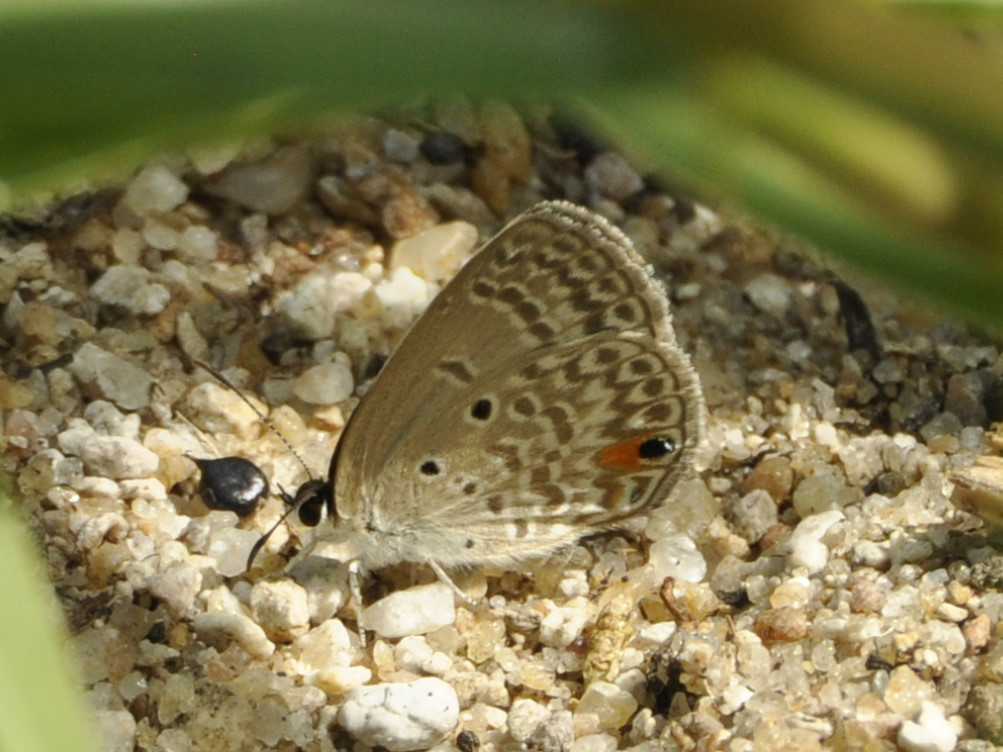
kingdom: Animalia
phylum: Arthropoda
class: Insecta
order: Lepidoptera
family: Lycaenidae
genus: Euchrysops
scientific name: Euchrysops malathana
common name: Common smoky blue
